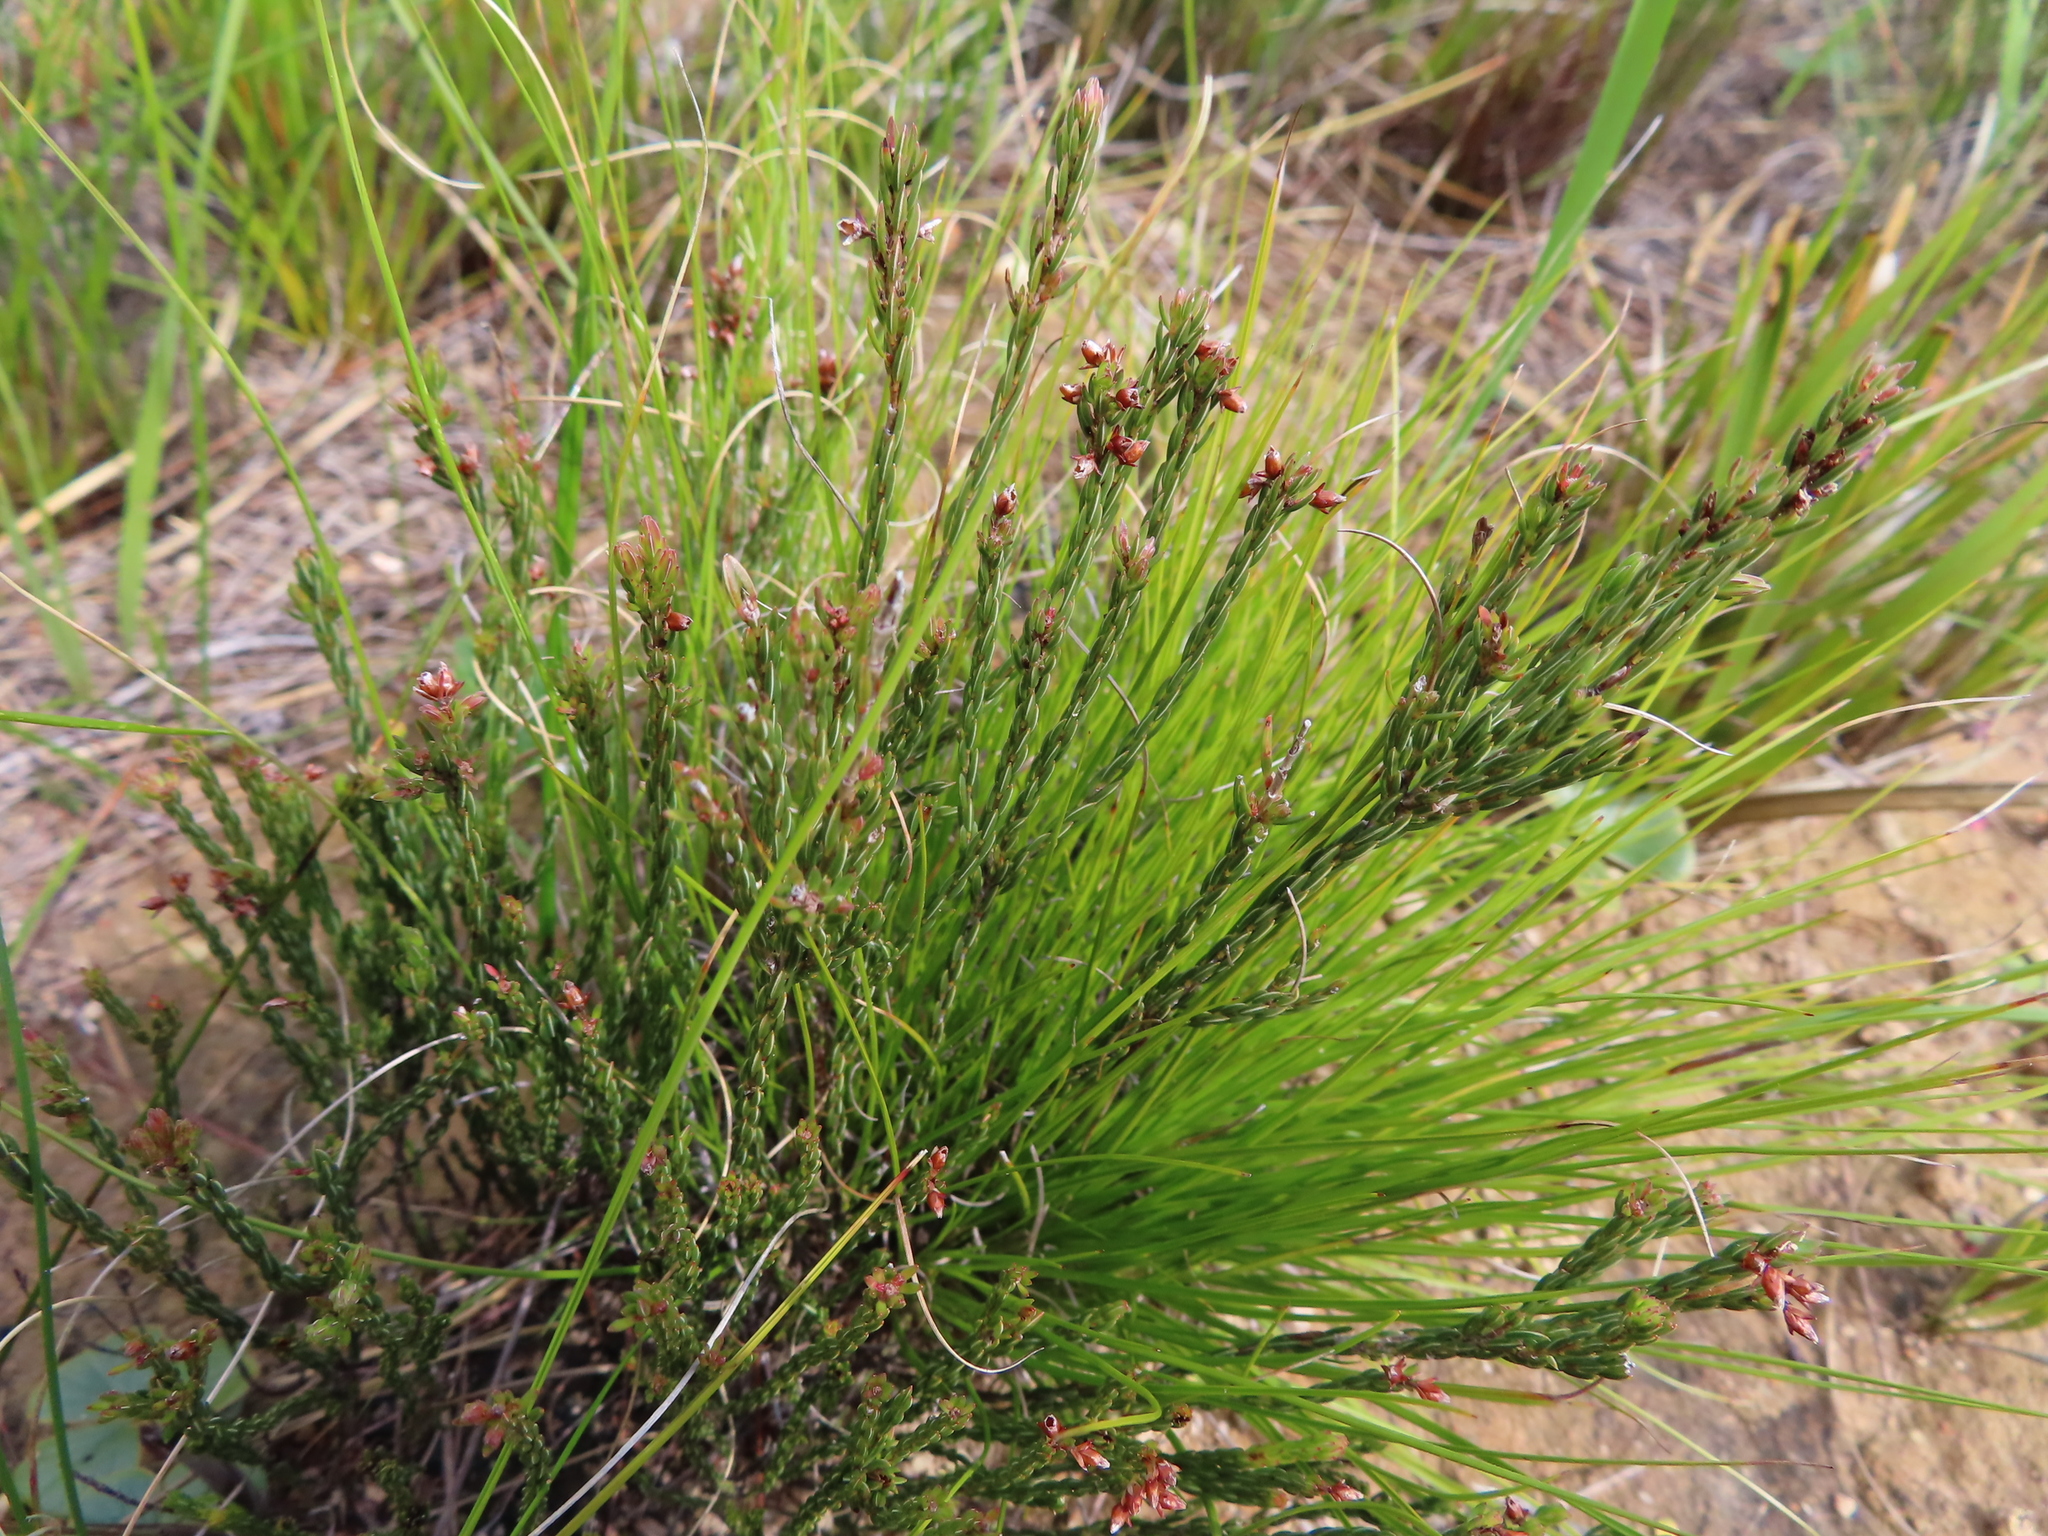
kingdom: Plantae
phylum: Tracheophyta
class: Magnoliopsida
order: Ericales
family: Ericaceae
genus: Erica
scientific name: Erica filiformis
